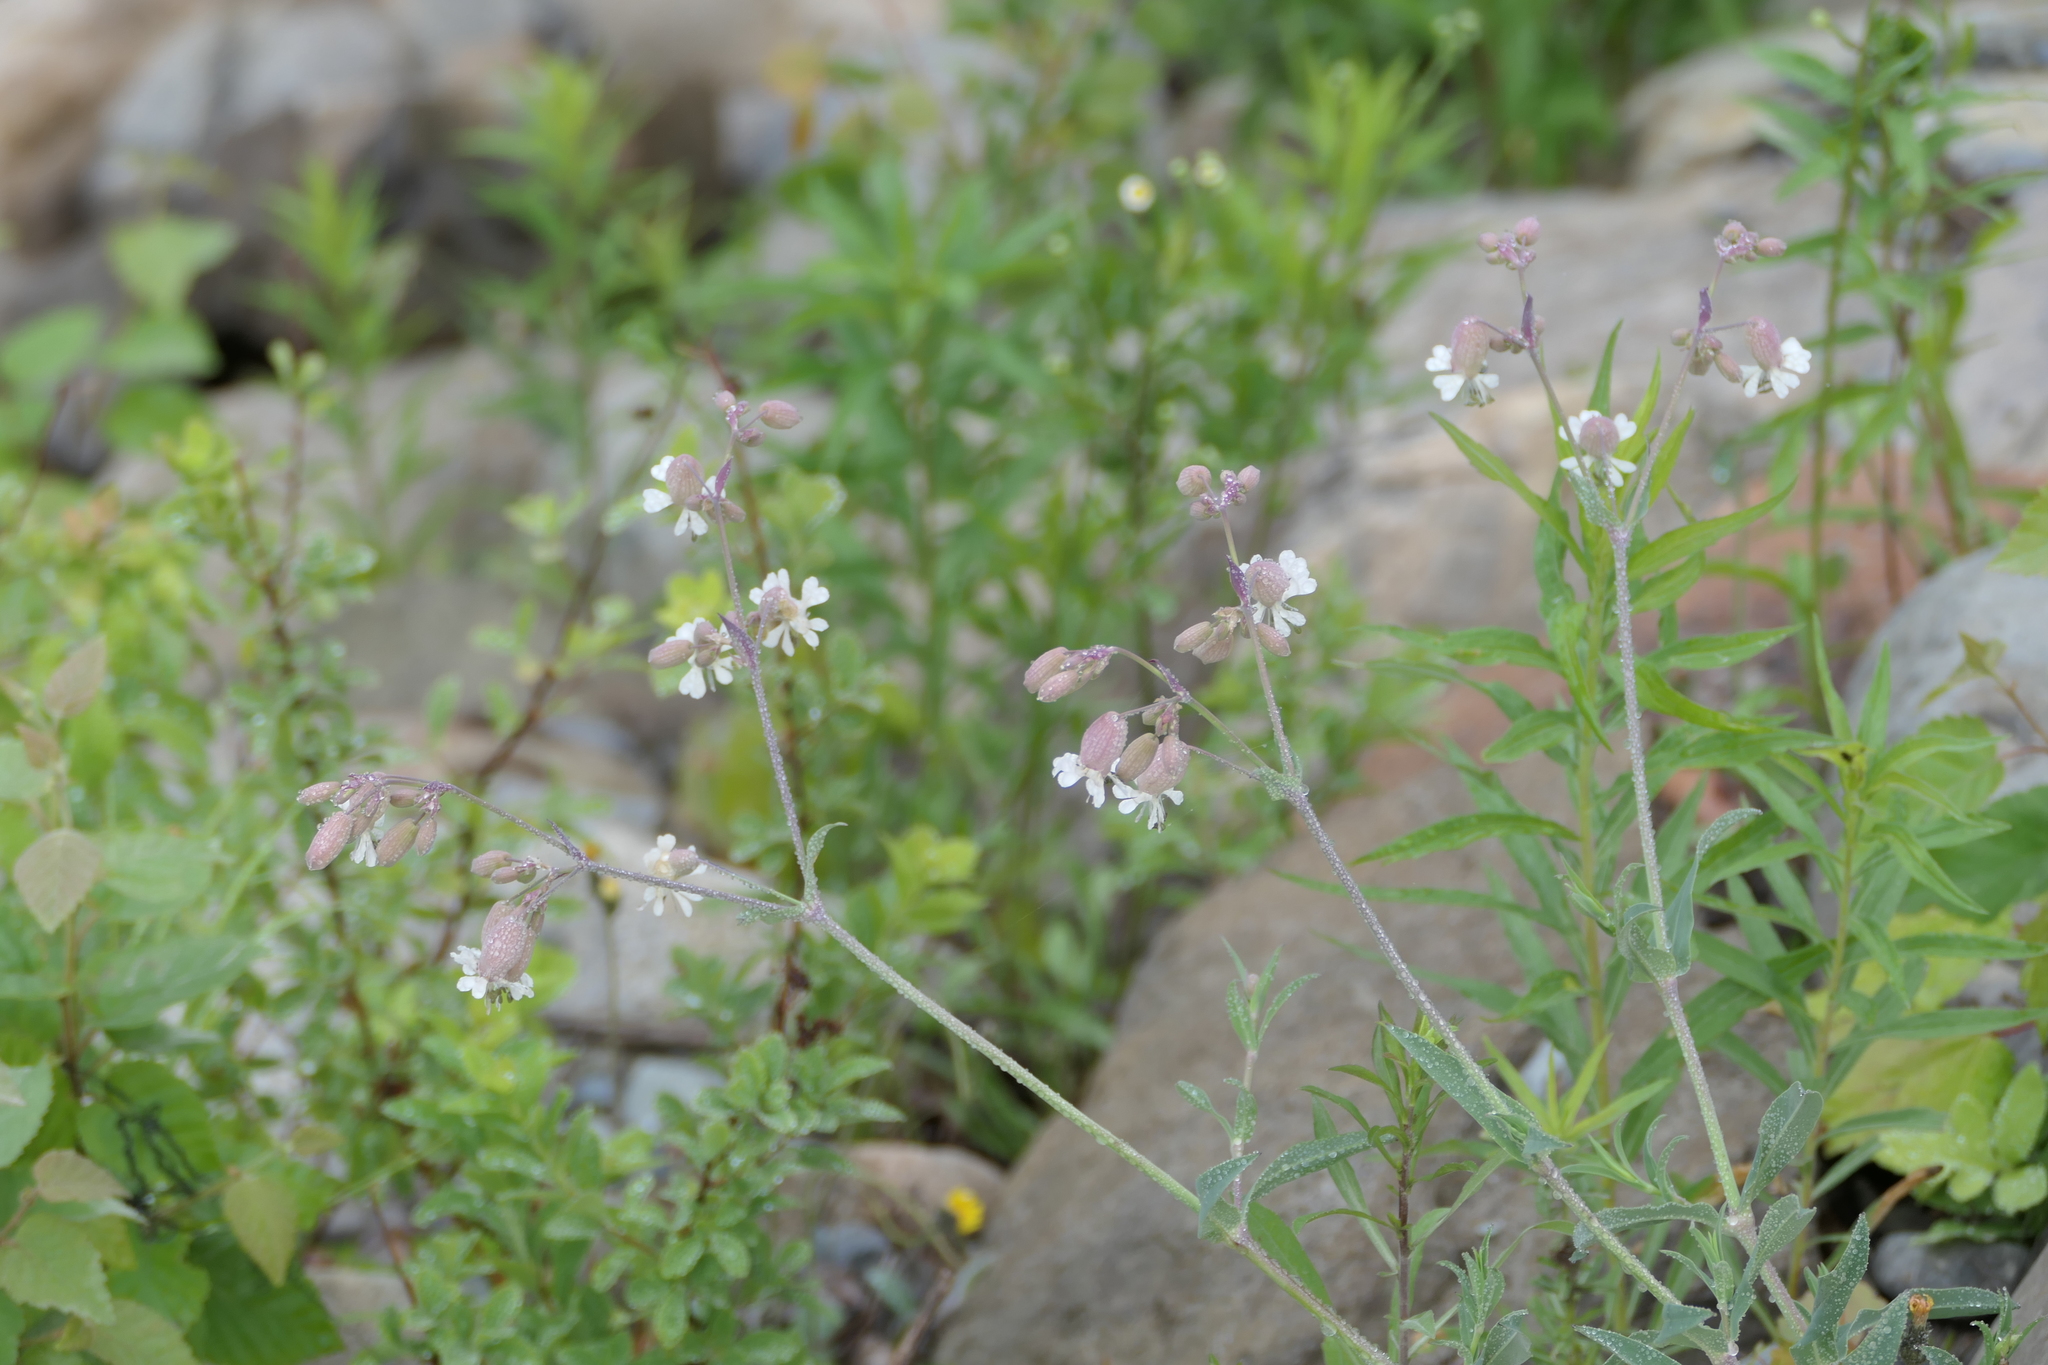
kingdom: Plantae
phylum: Tracheophyta
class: Magnoliopsida
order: Caryophyllales
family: Caryophyllaceae
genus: Silene
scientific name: Silene vulgaris
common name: Bladder campion
